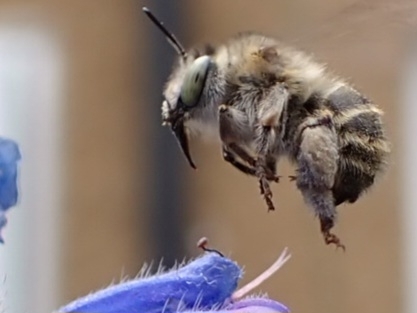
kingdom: Animalia
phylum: Arthropoda
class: Insecta
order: Hymenoptera
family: Apidae
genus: Anthophora
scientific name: Anthophora quadrimaculata
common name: Four-banded flower bee
